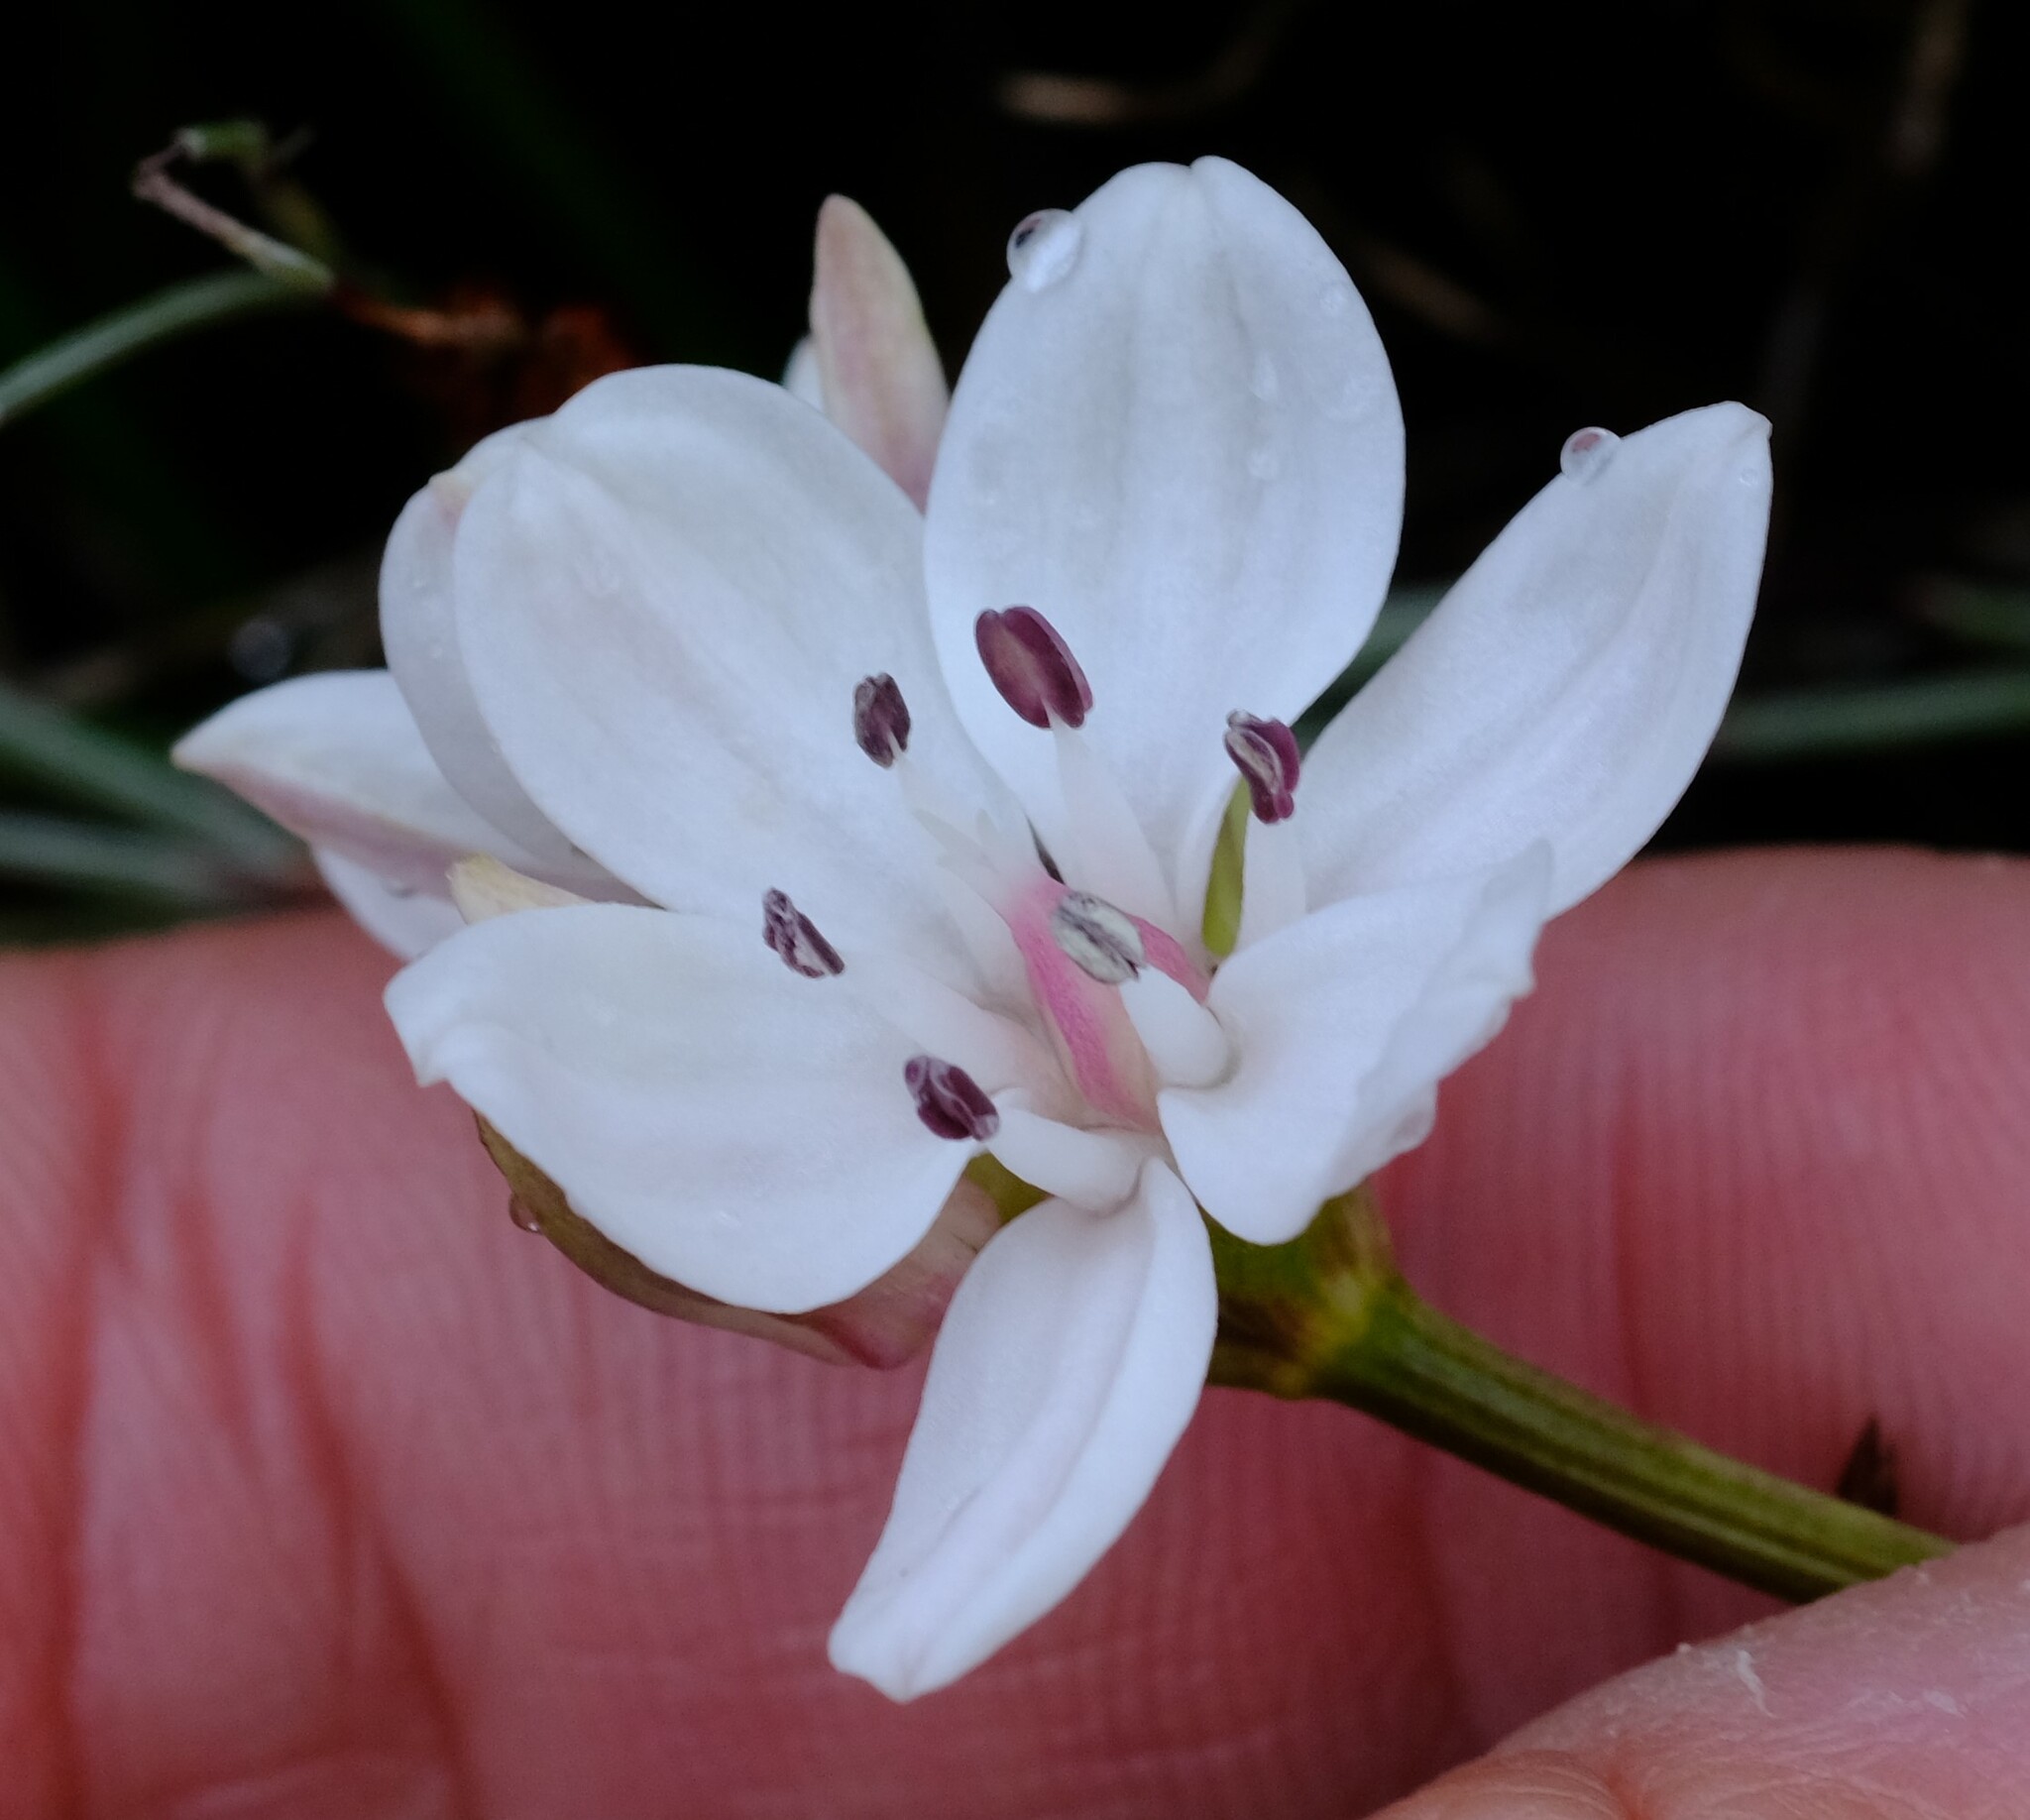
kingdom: Plantae
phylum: Tracheophyta
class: Liliopsida
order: Liliales
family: Colchicaceae
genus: Burchardia
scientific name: Burchardia umbellata
